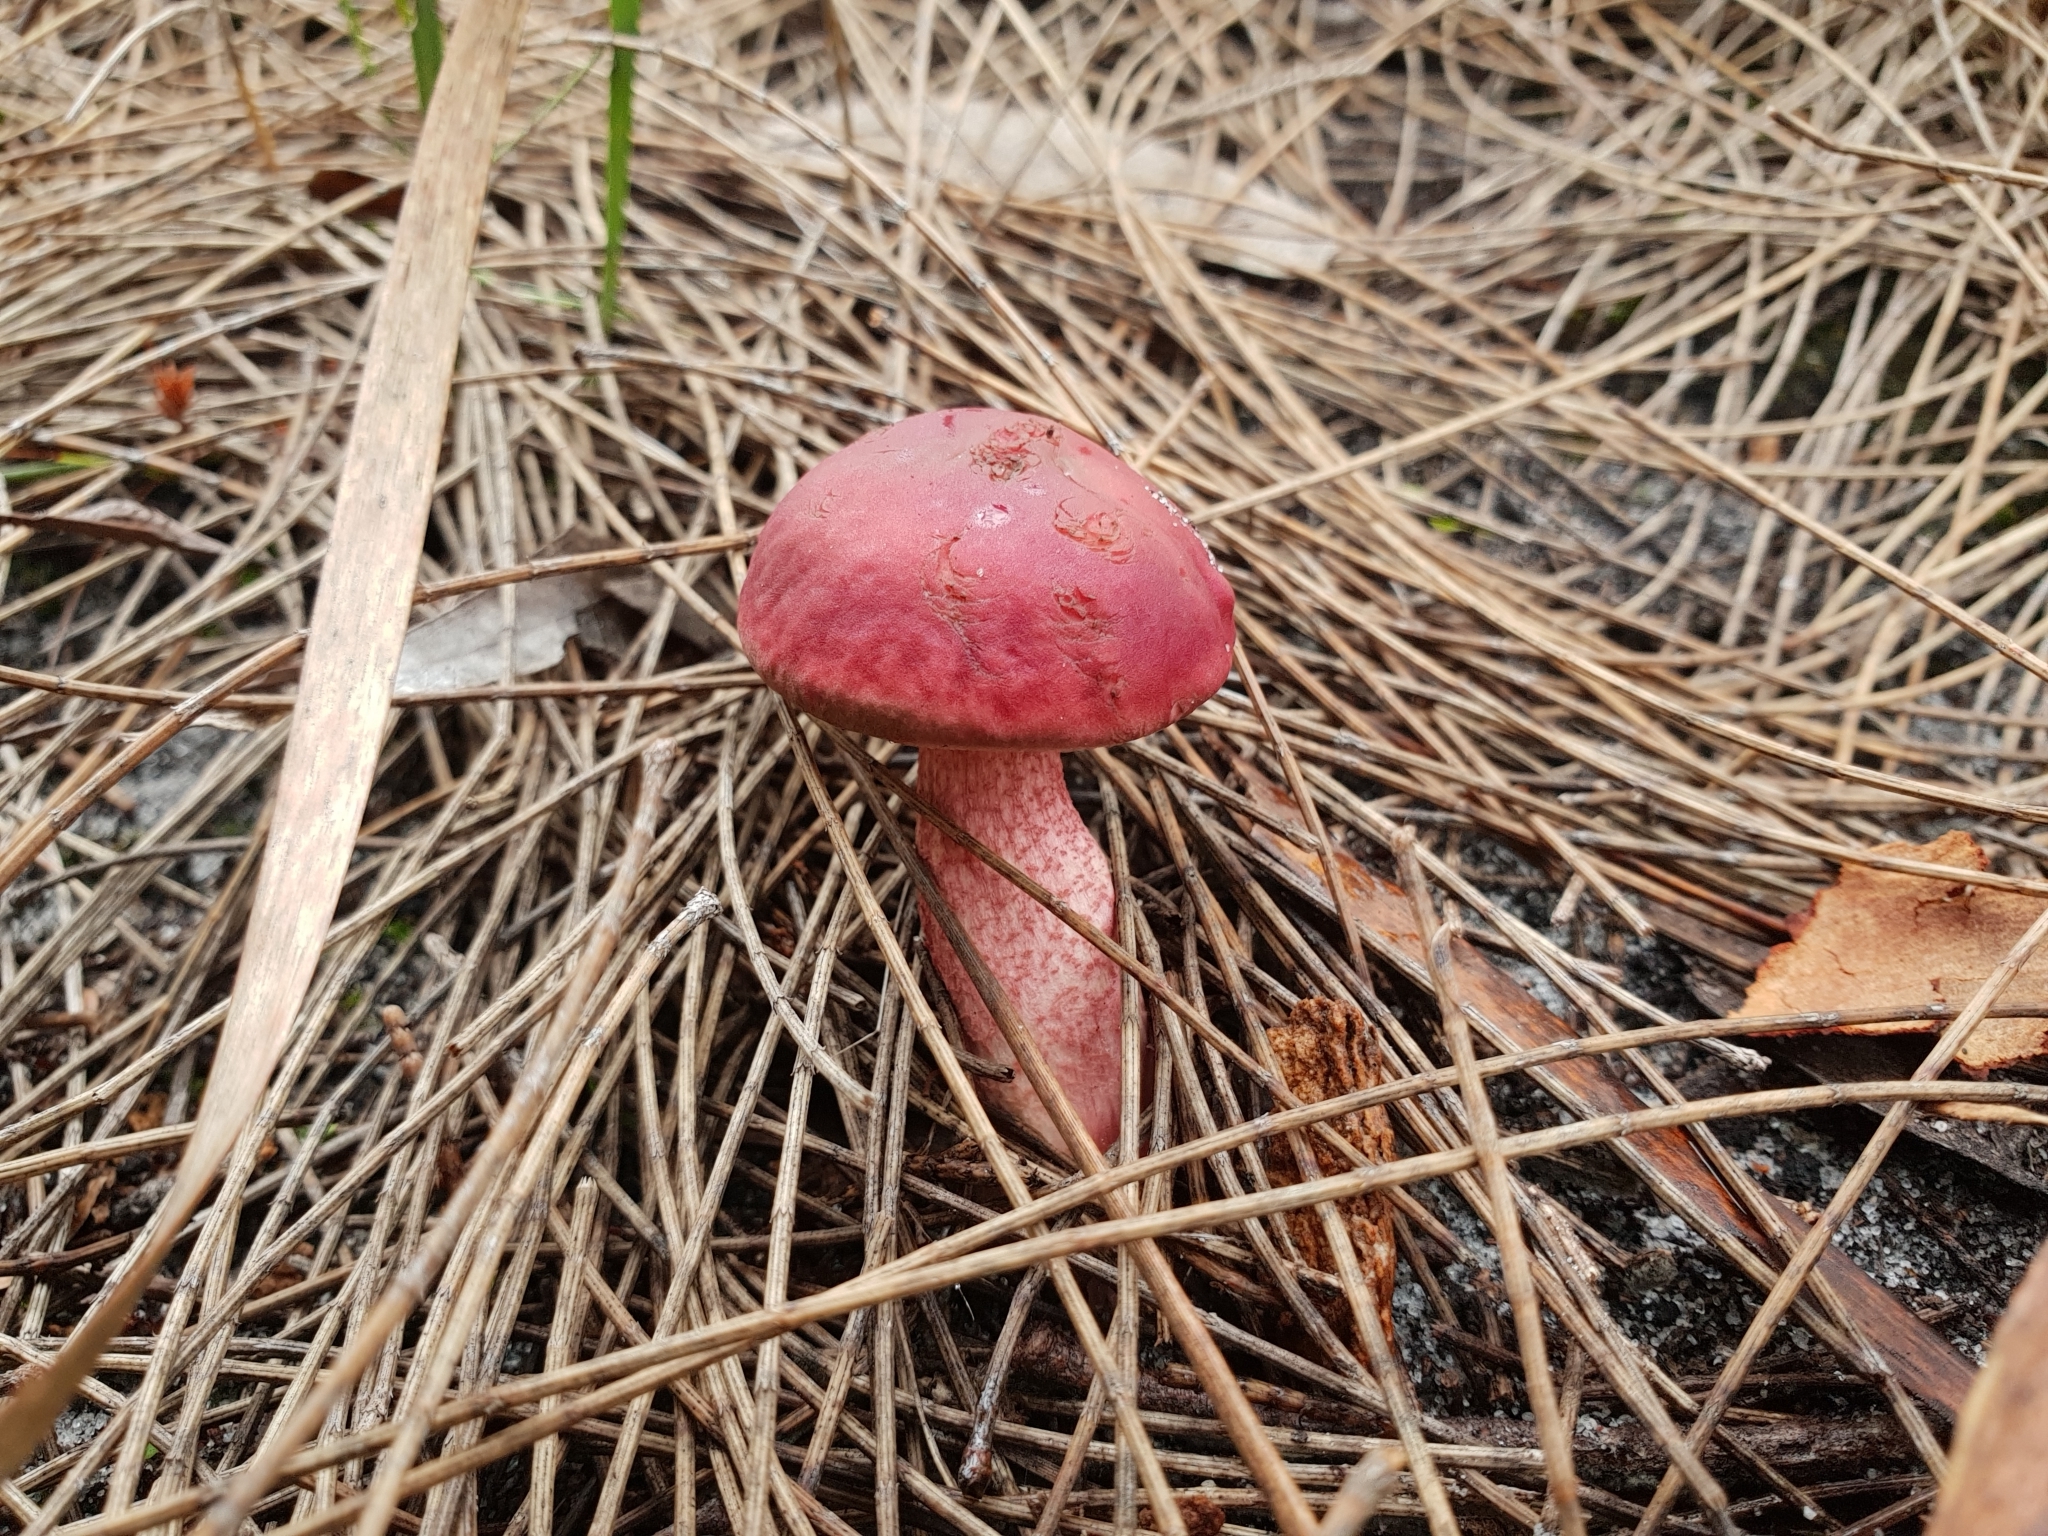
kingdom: Fungi
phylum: Basidiomycota
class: Agaricomycetes
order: Boletales
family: Boletaceae
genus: Boletellus
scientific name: Boletellus obscurecoccineus
